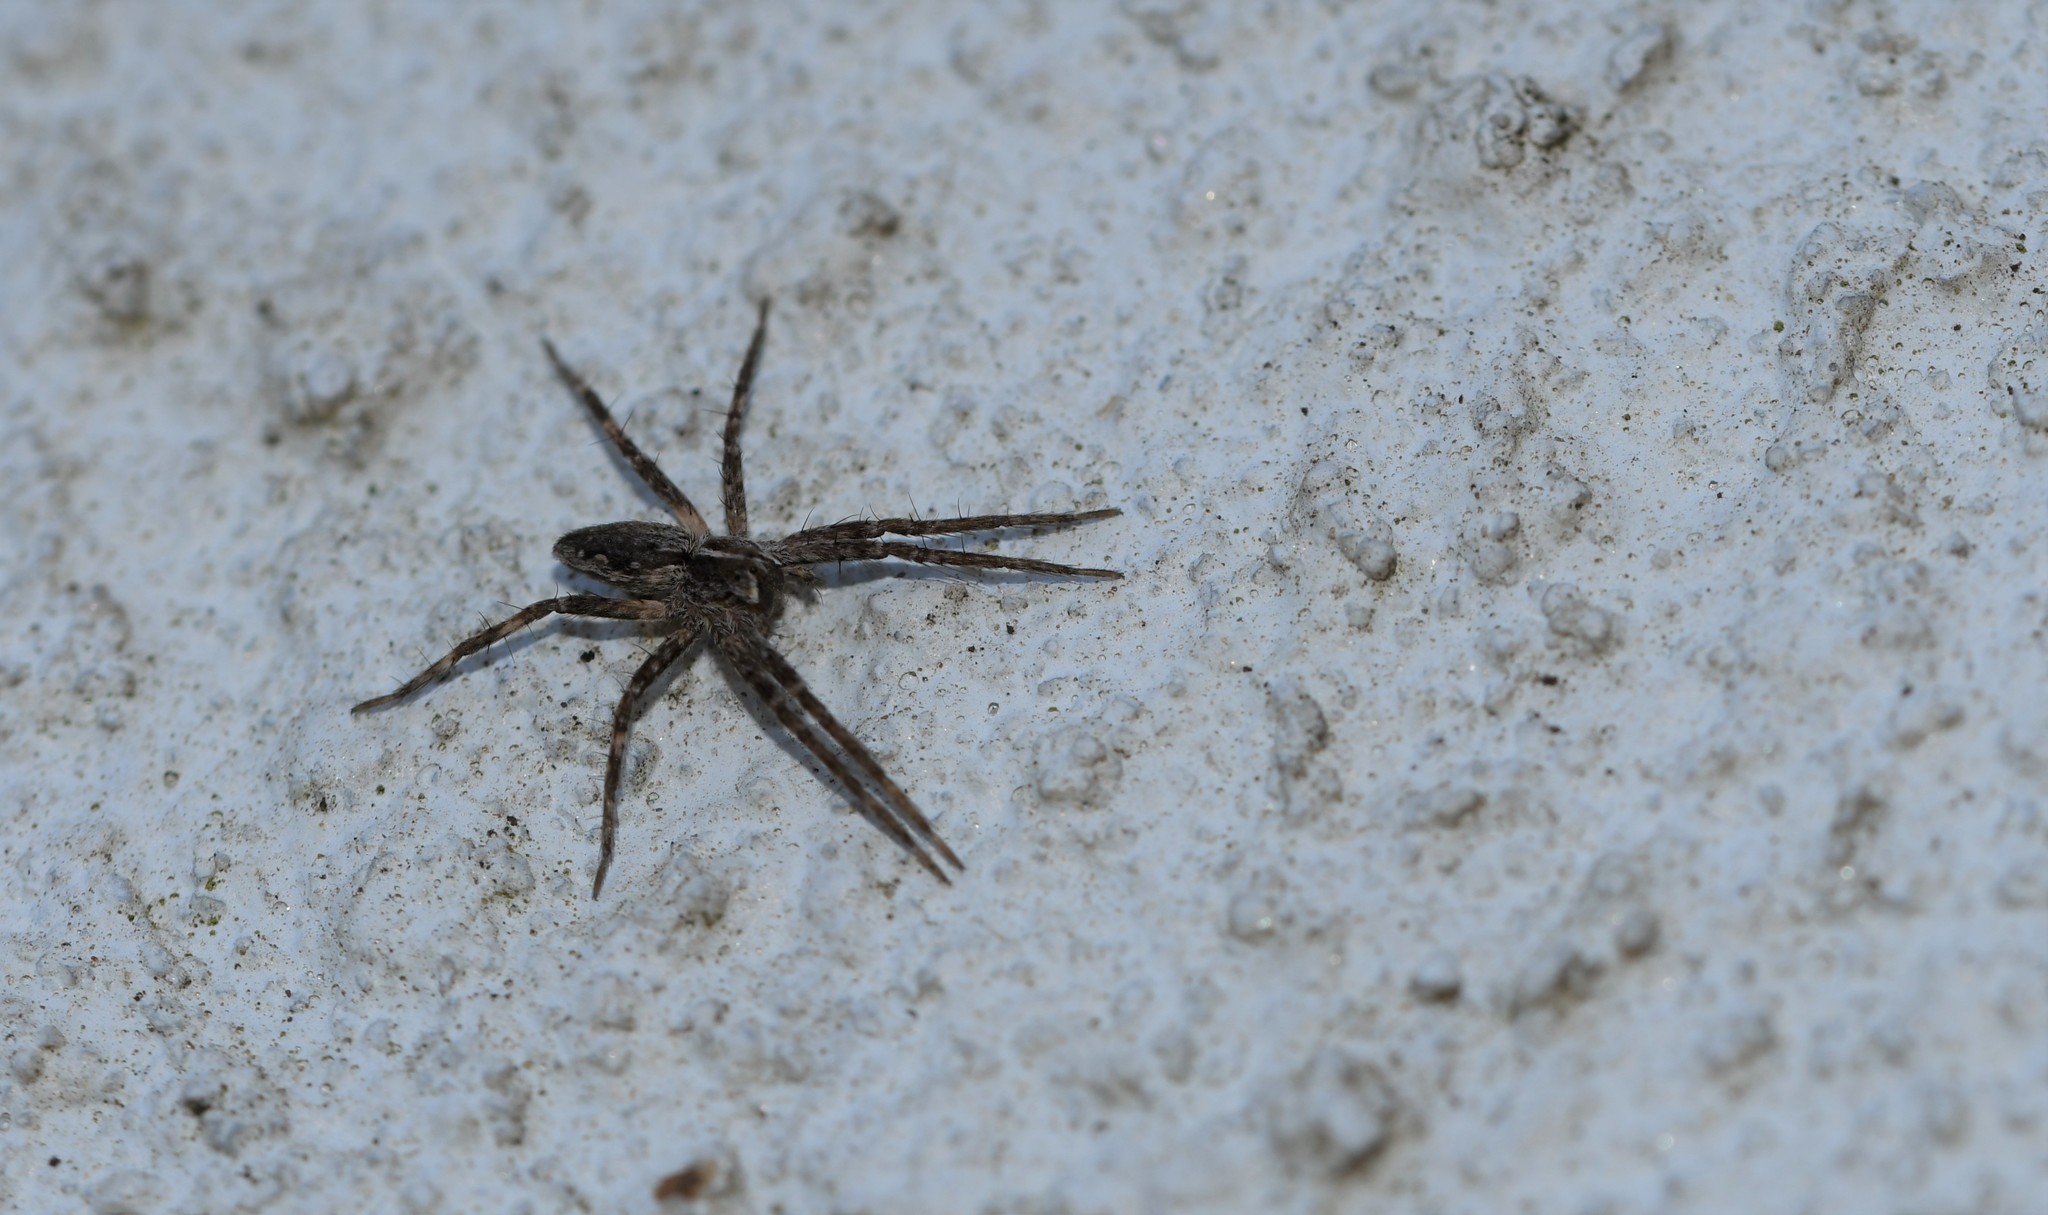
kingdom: Animalia
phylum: Arthropoda
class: Arachnida
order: Araneae
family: Pisauridae
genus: Pisaura
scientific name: Pisaura mirabilis
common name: Tent spider
